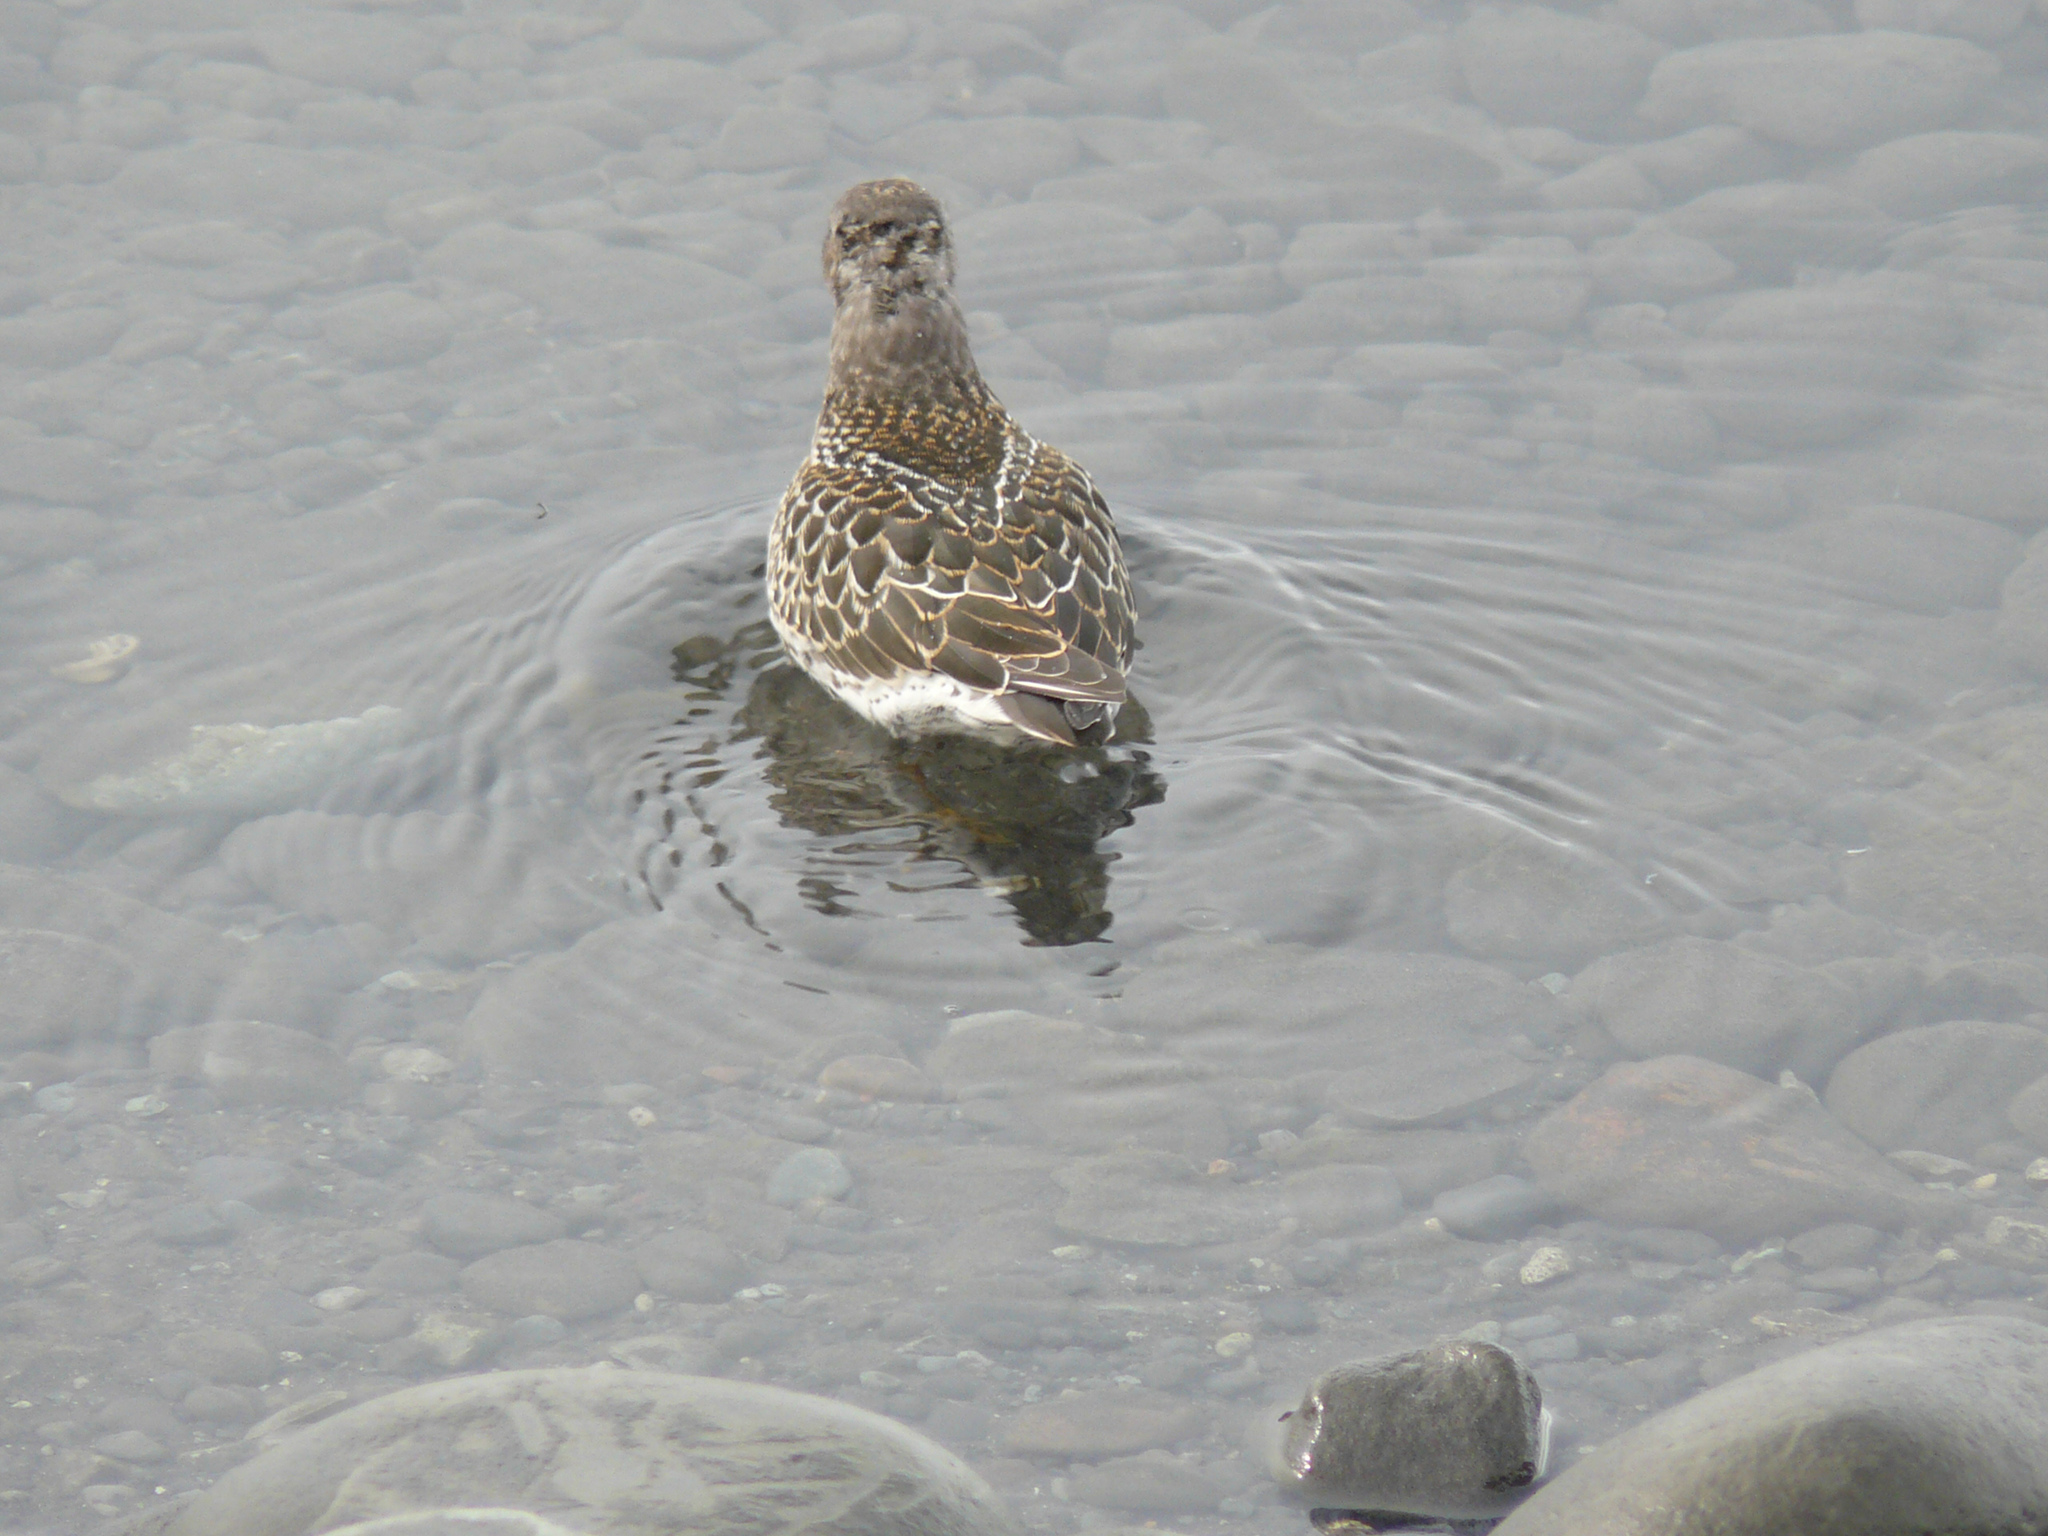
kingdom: Animalia
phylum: Chordata
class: Aves
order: Charadriiformes
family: Scolopacidae
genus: Calidris
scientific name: Calidris maritima
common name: Purple sandpiper
